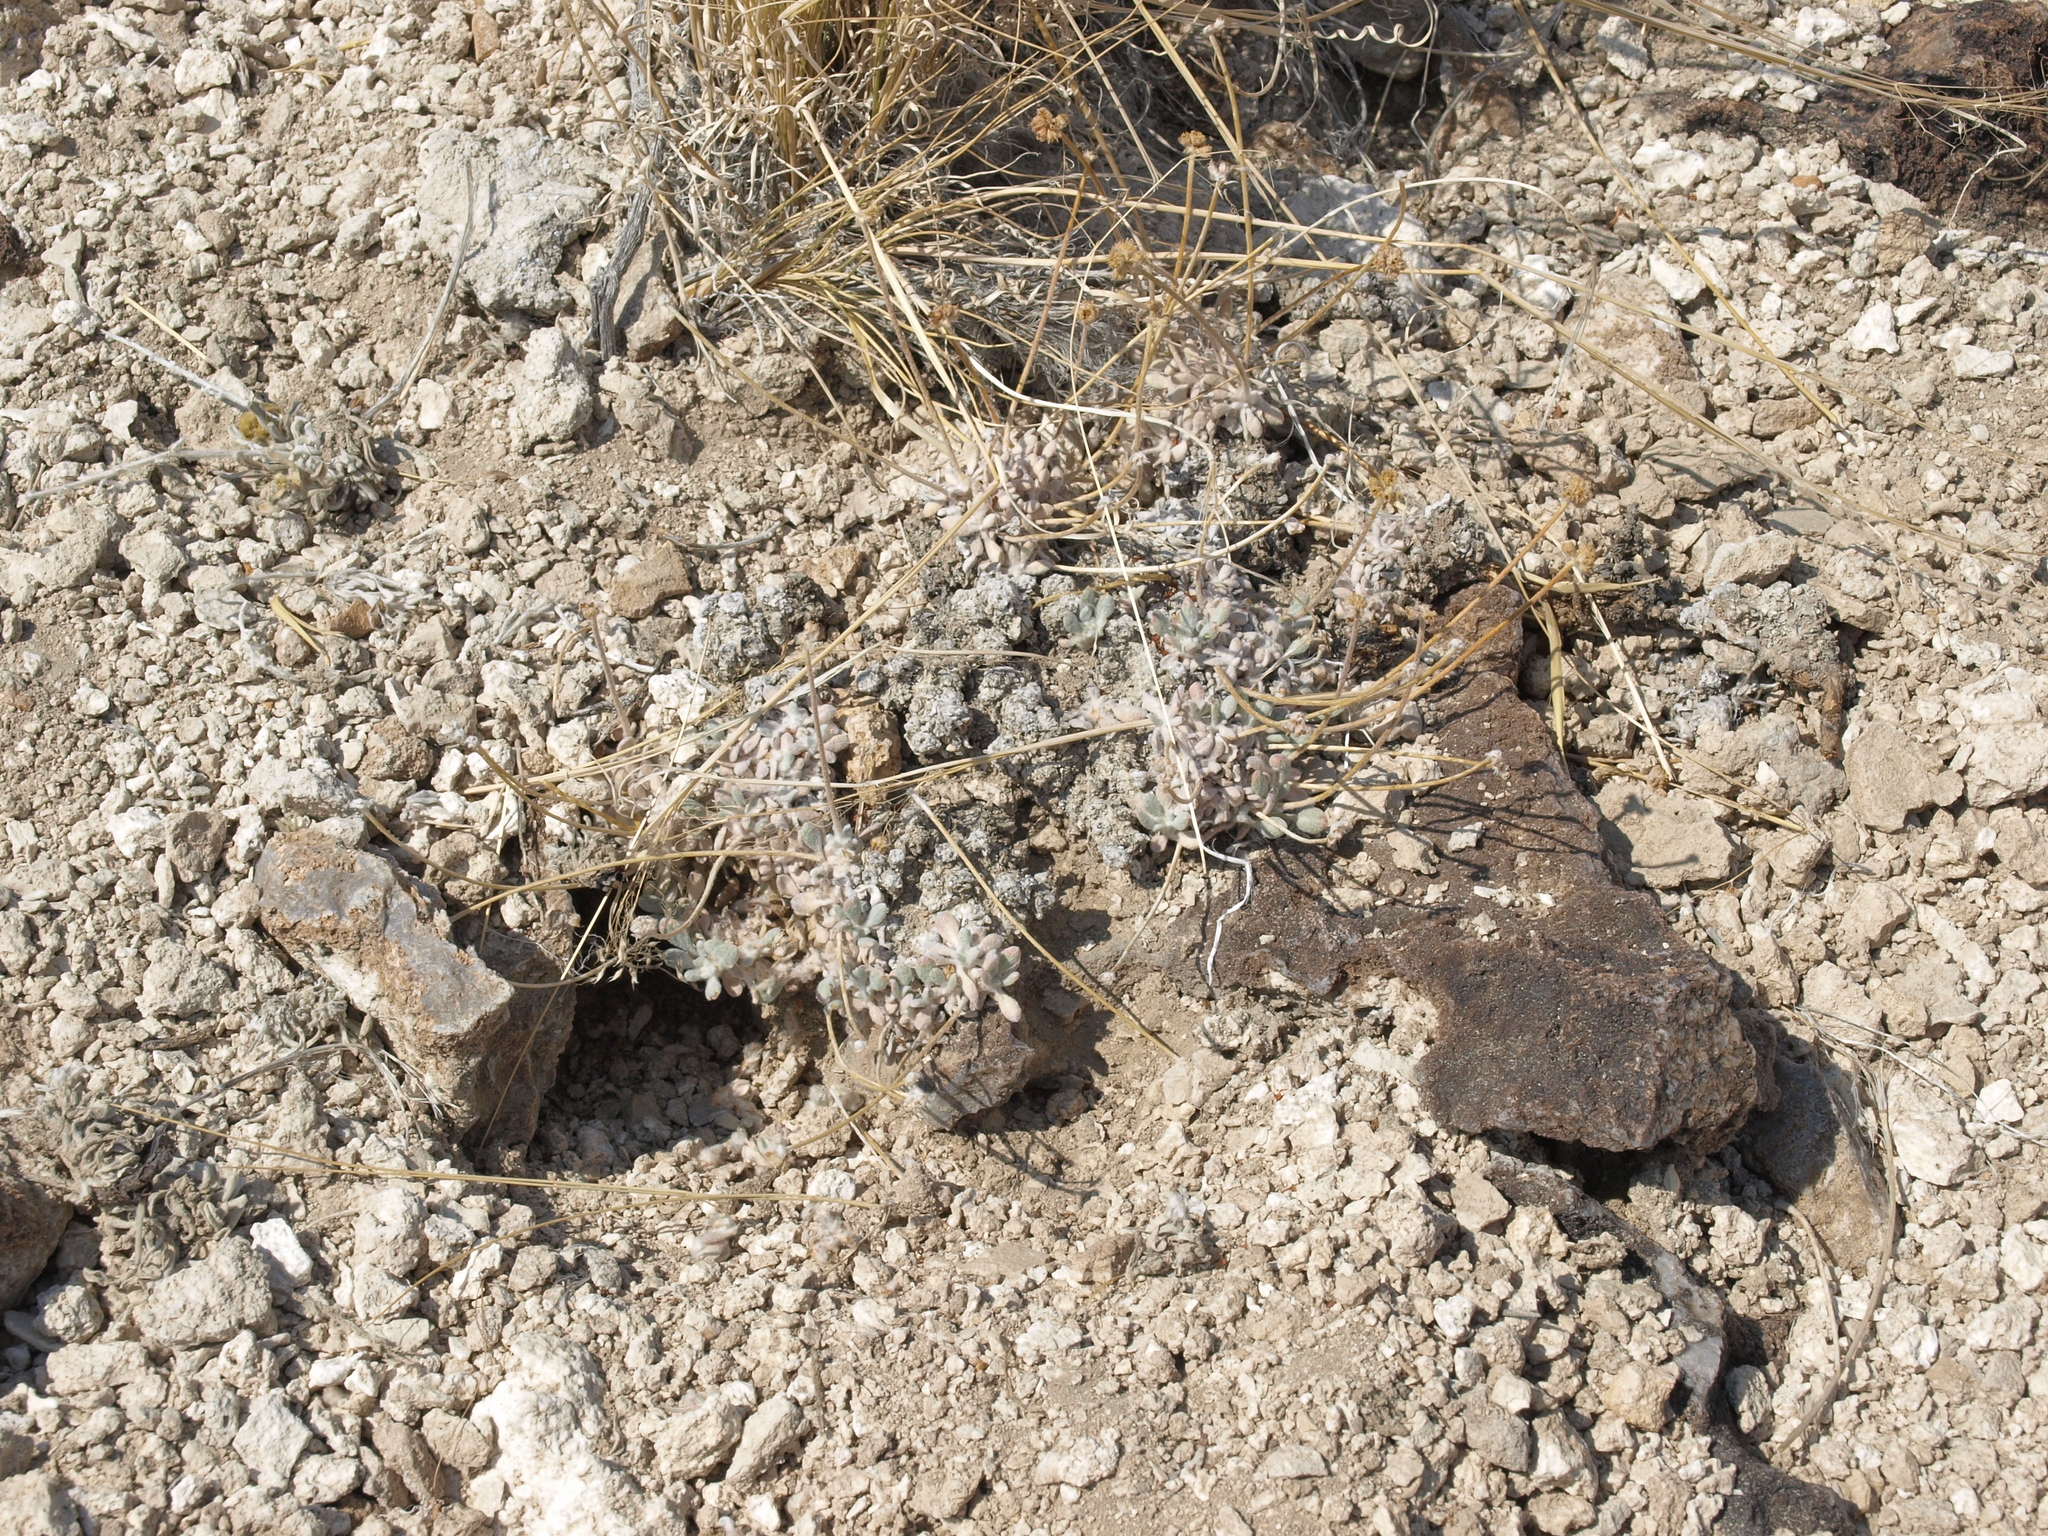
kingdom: Plantae
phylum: Tracheophyta
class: Magnoliopsida
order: Caryophyllales
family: Polygonaceae
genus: Eriogonum
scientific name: Eriogonum tiehmii
